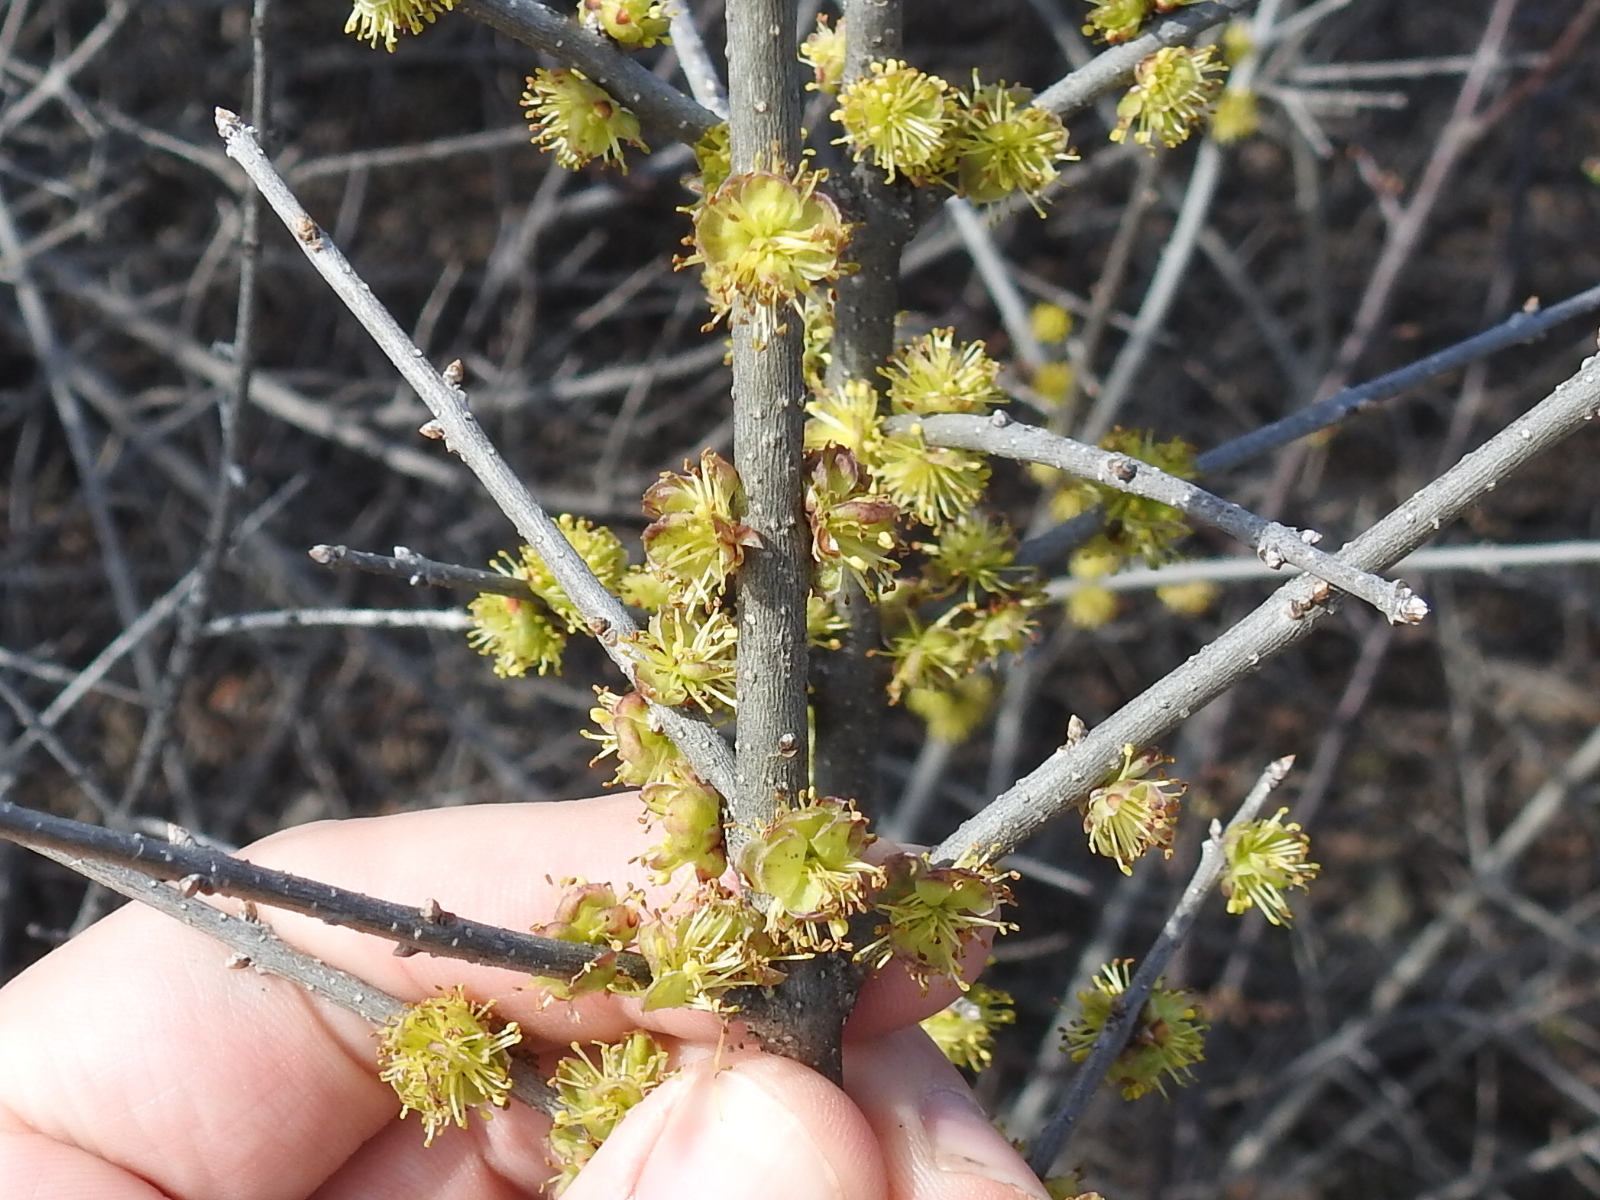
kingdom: Plantae
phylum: Tracheophyta
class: Magnoliopsida
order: Lamiales
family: Oleaceae
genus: Forestiera
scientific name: Forestiera pubescens
